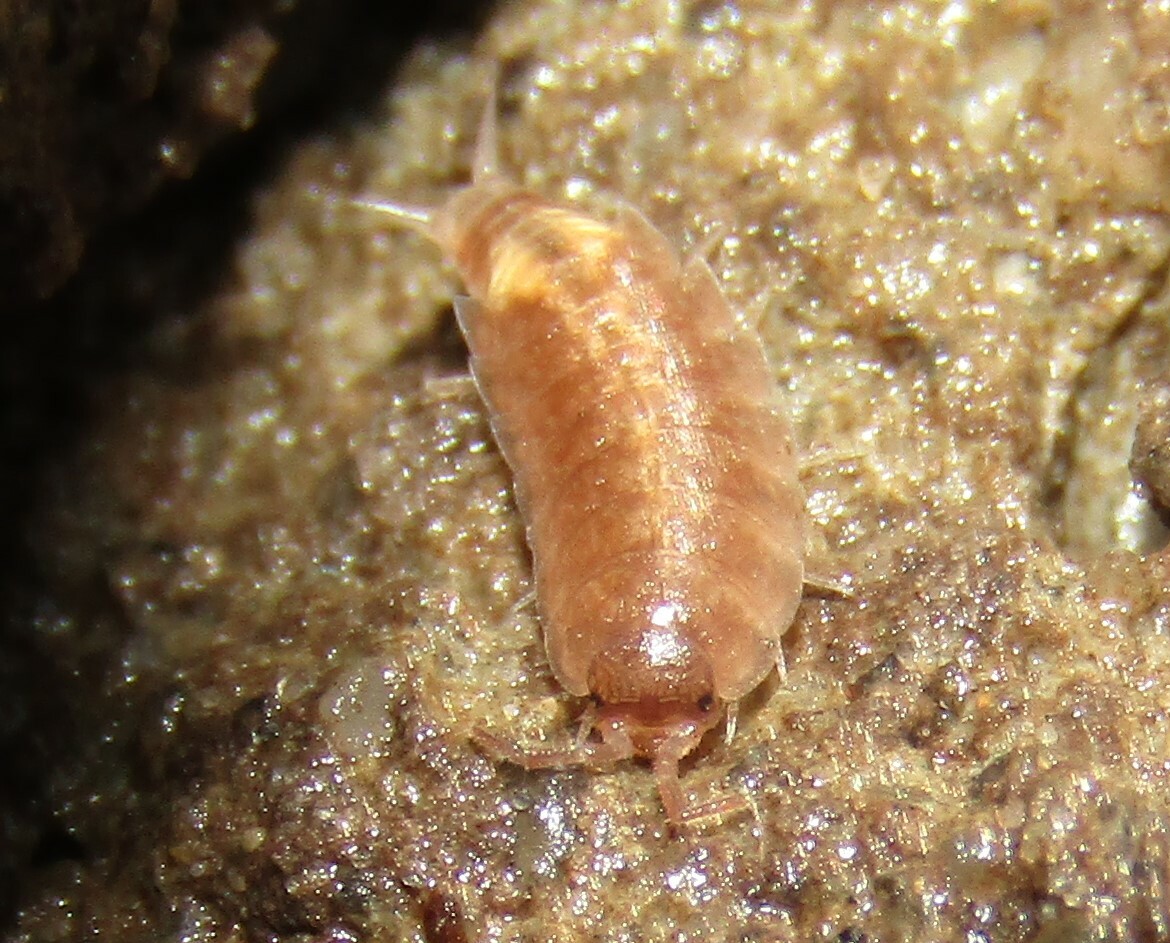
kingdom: Animalia
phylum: Arthropoda
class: Malacostraca
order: Isopoda
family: Trichoniscidae
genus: Hyloniscus
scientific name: Hyloniscus riparius
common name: Isopod
